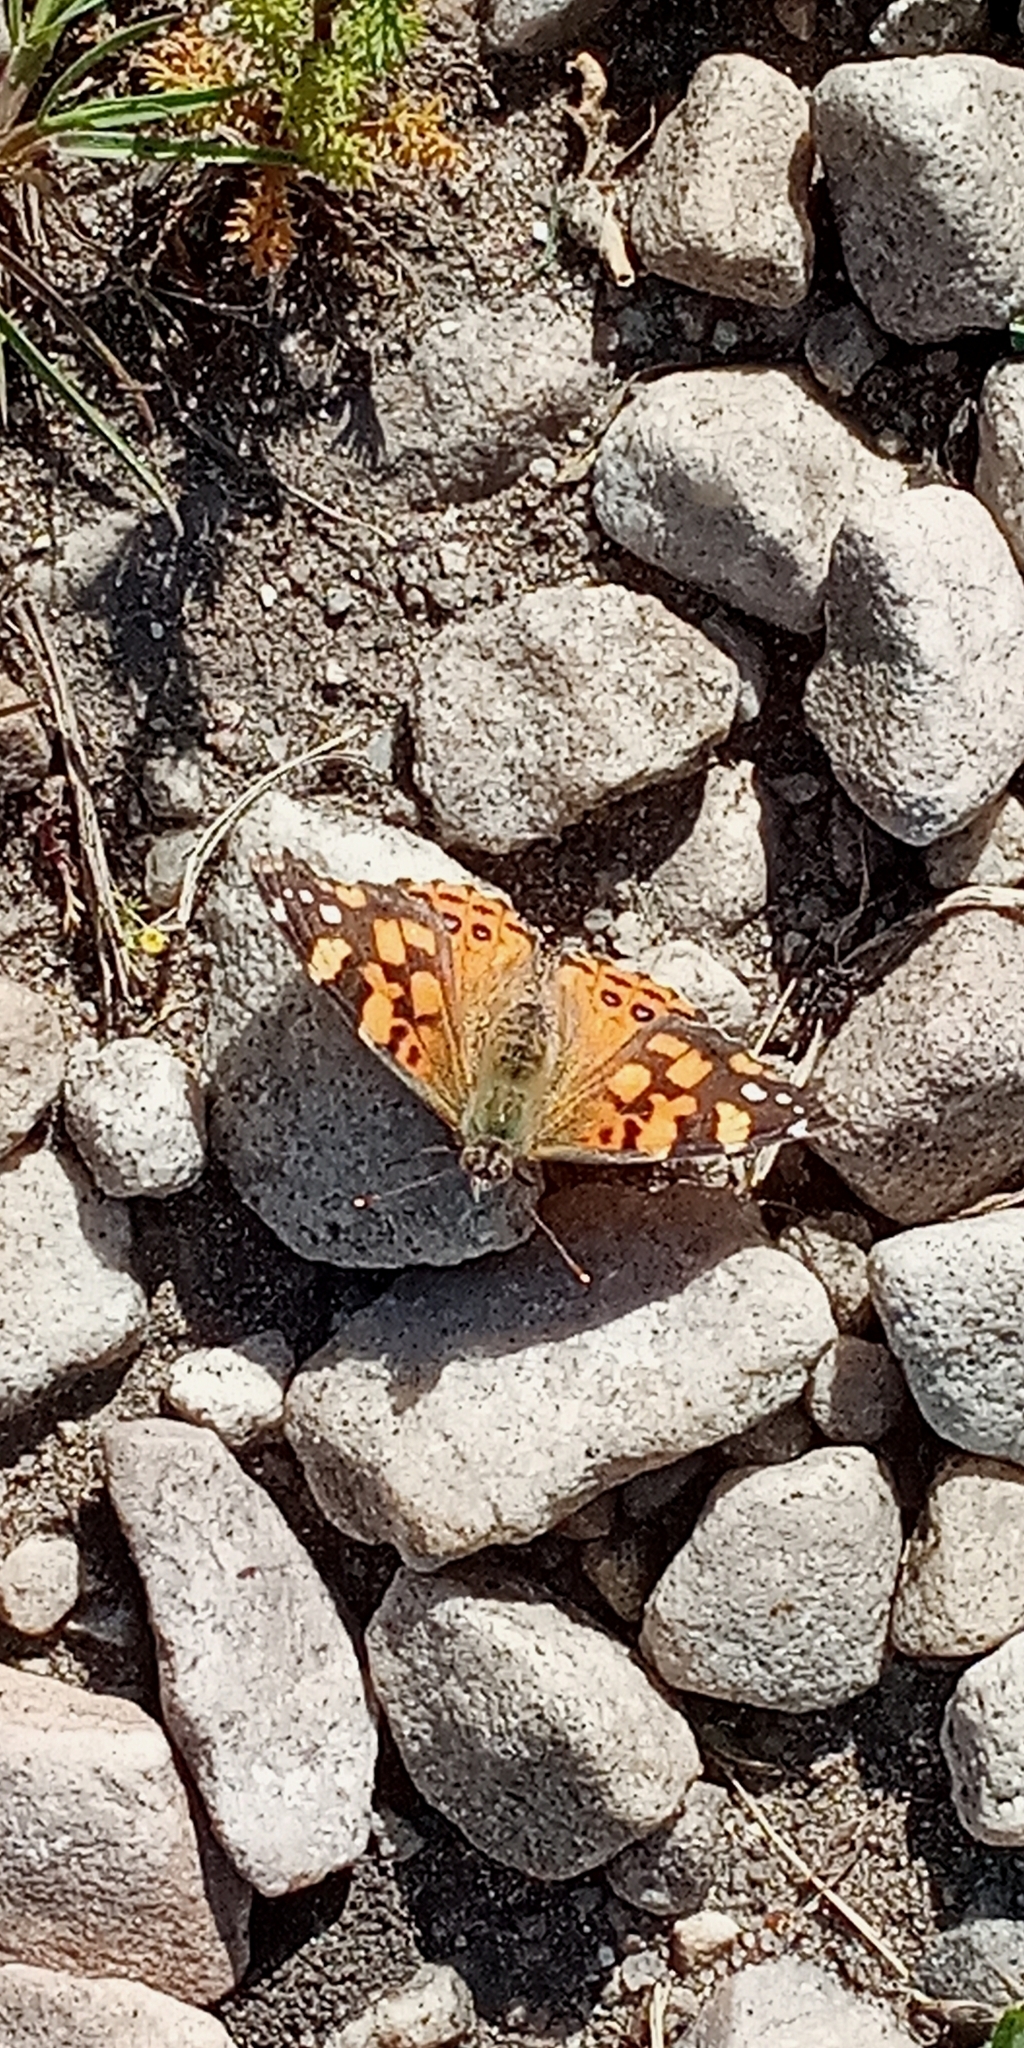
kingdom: Animalia
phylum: Arthropoda
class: Insecta
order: Lepidoptera
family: Nymphalidae
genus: Vanessa
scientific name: Vanessa carye
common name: Subtropical lady
